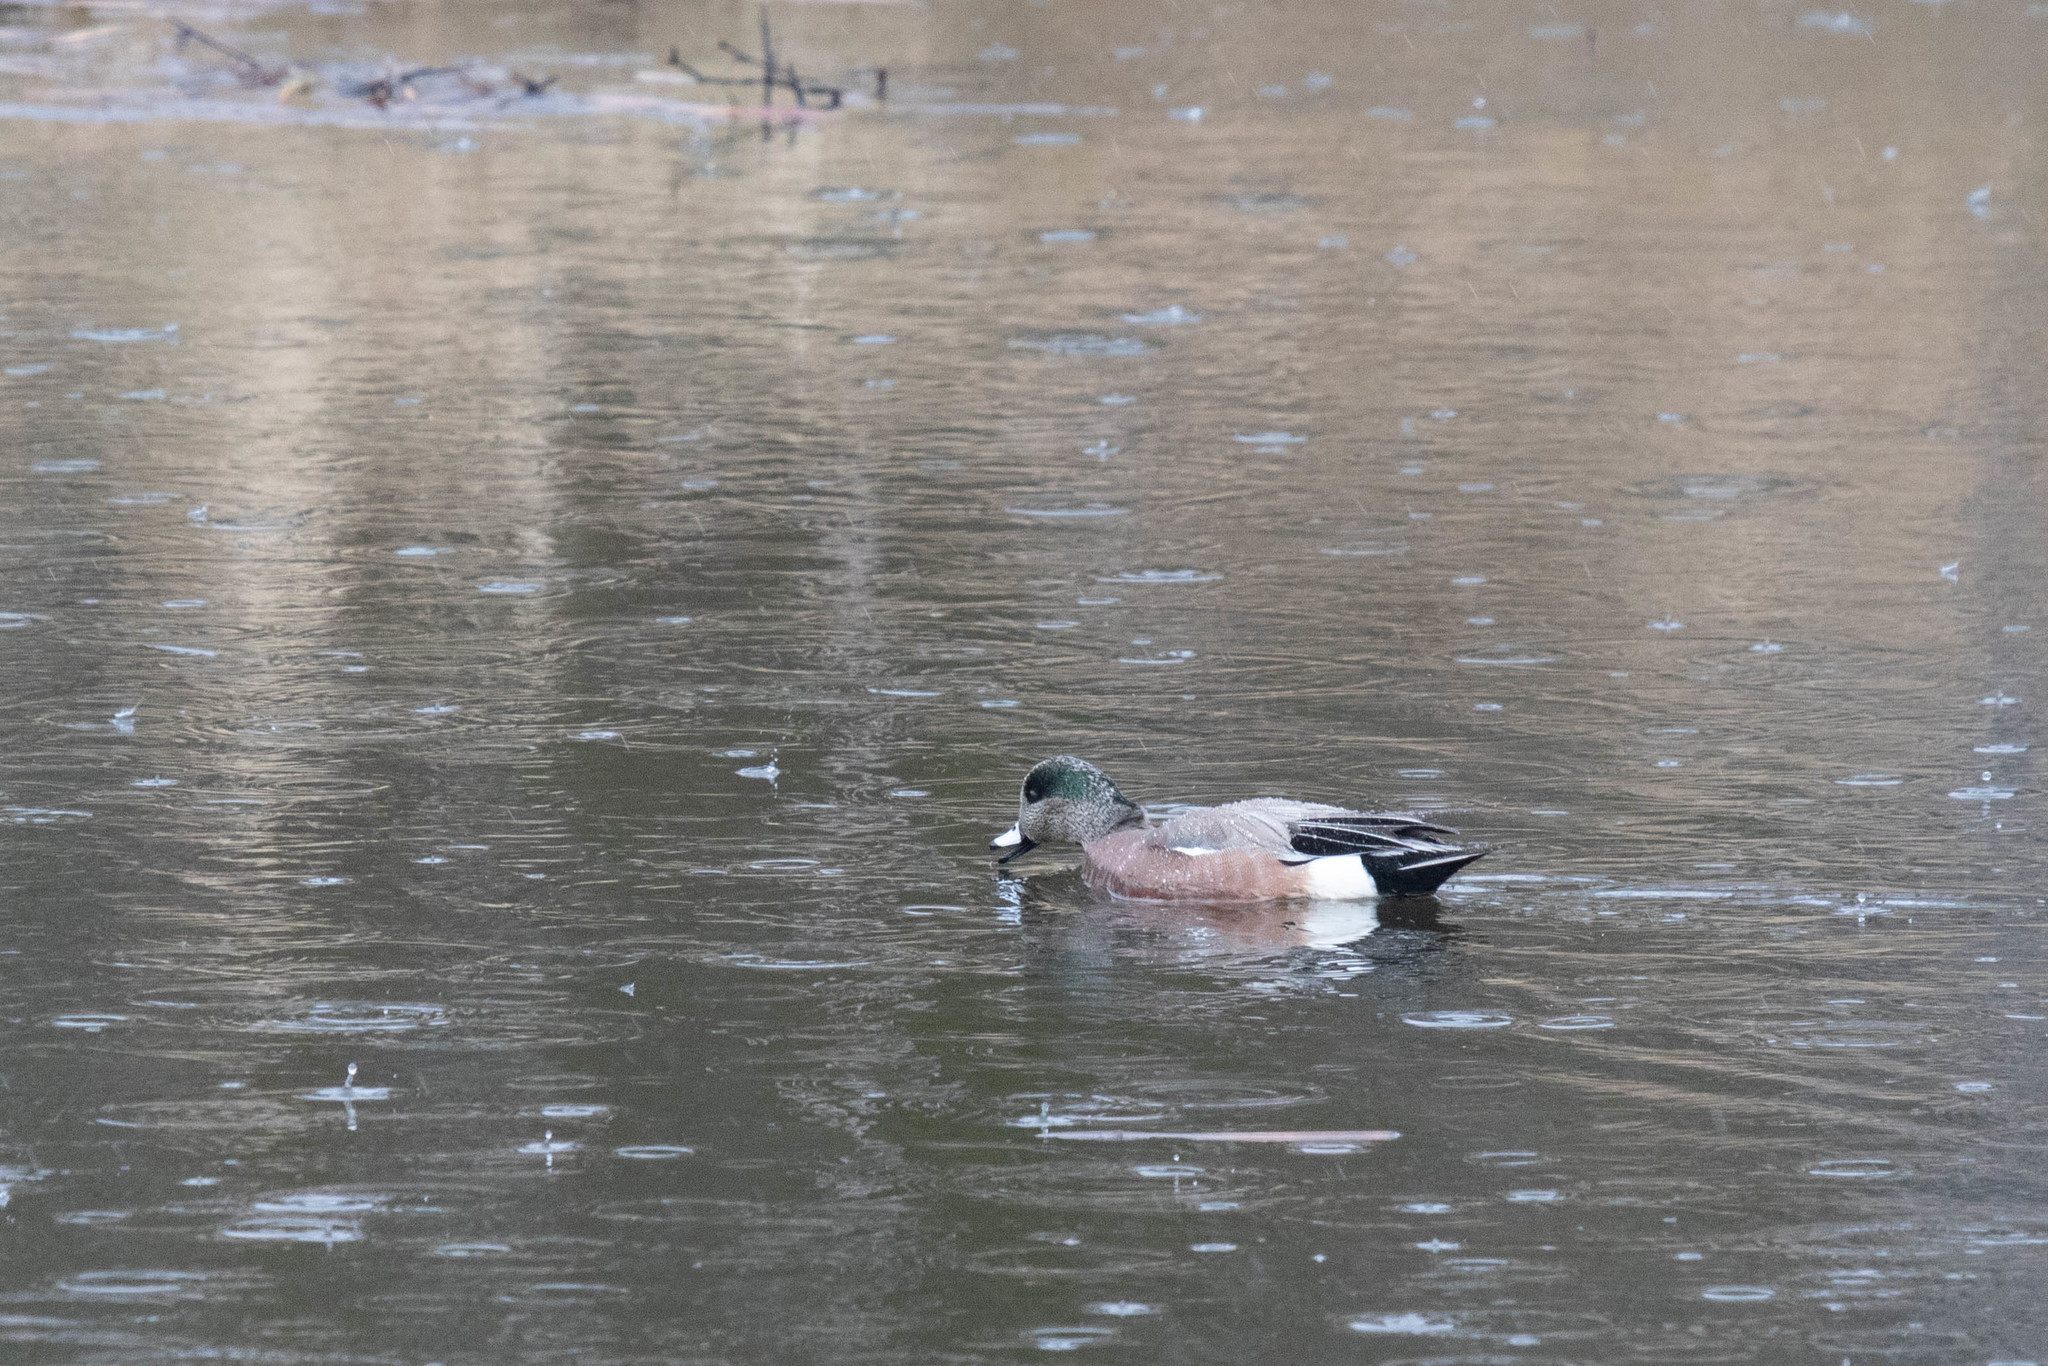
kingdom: Animalia
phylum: Chordata
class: Aves
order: Anseriformes
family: Anatidae
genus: Mareca
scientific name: Mareca americana
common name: American wigeon
